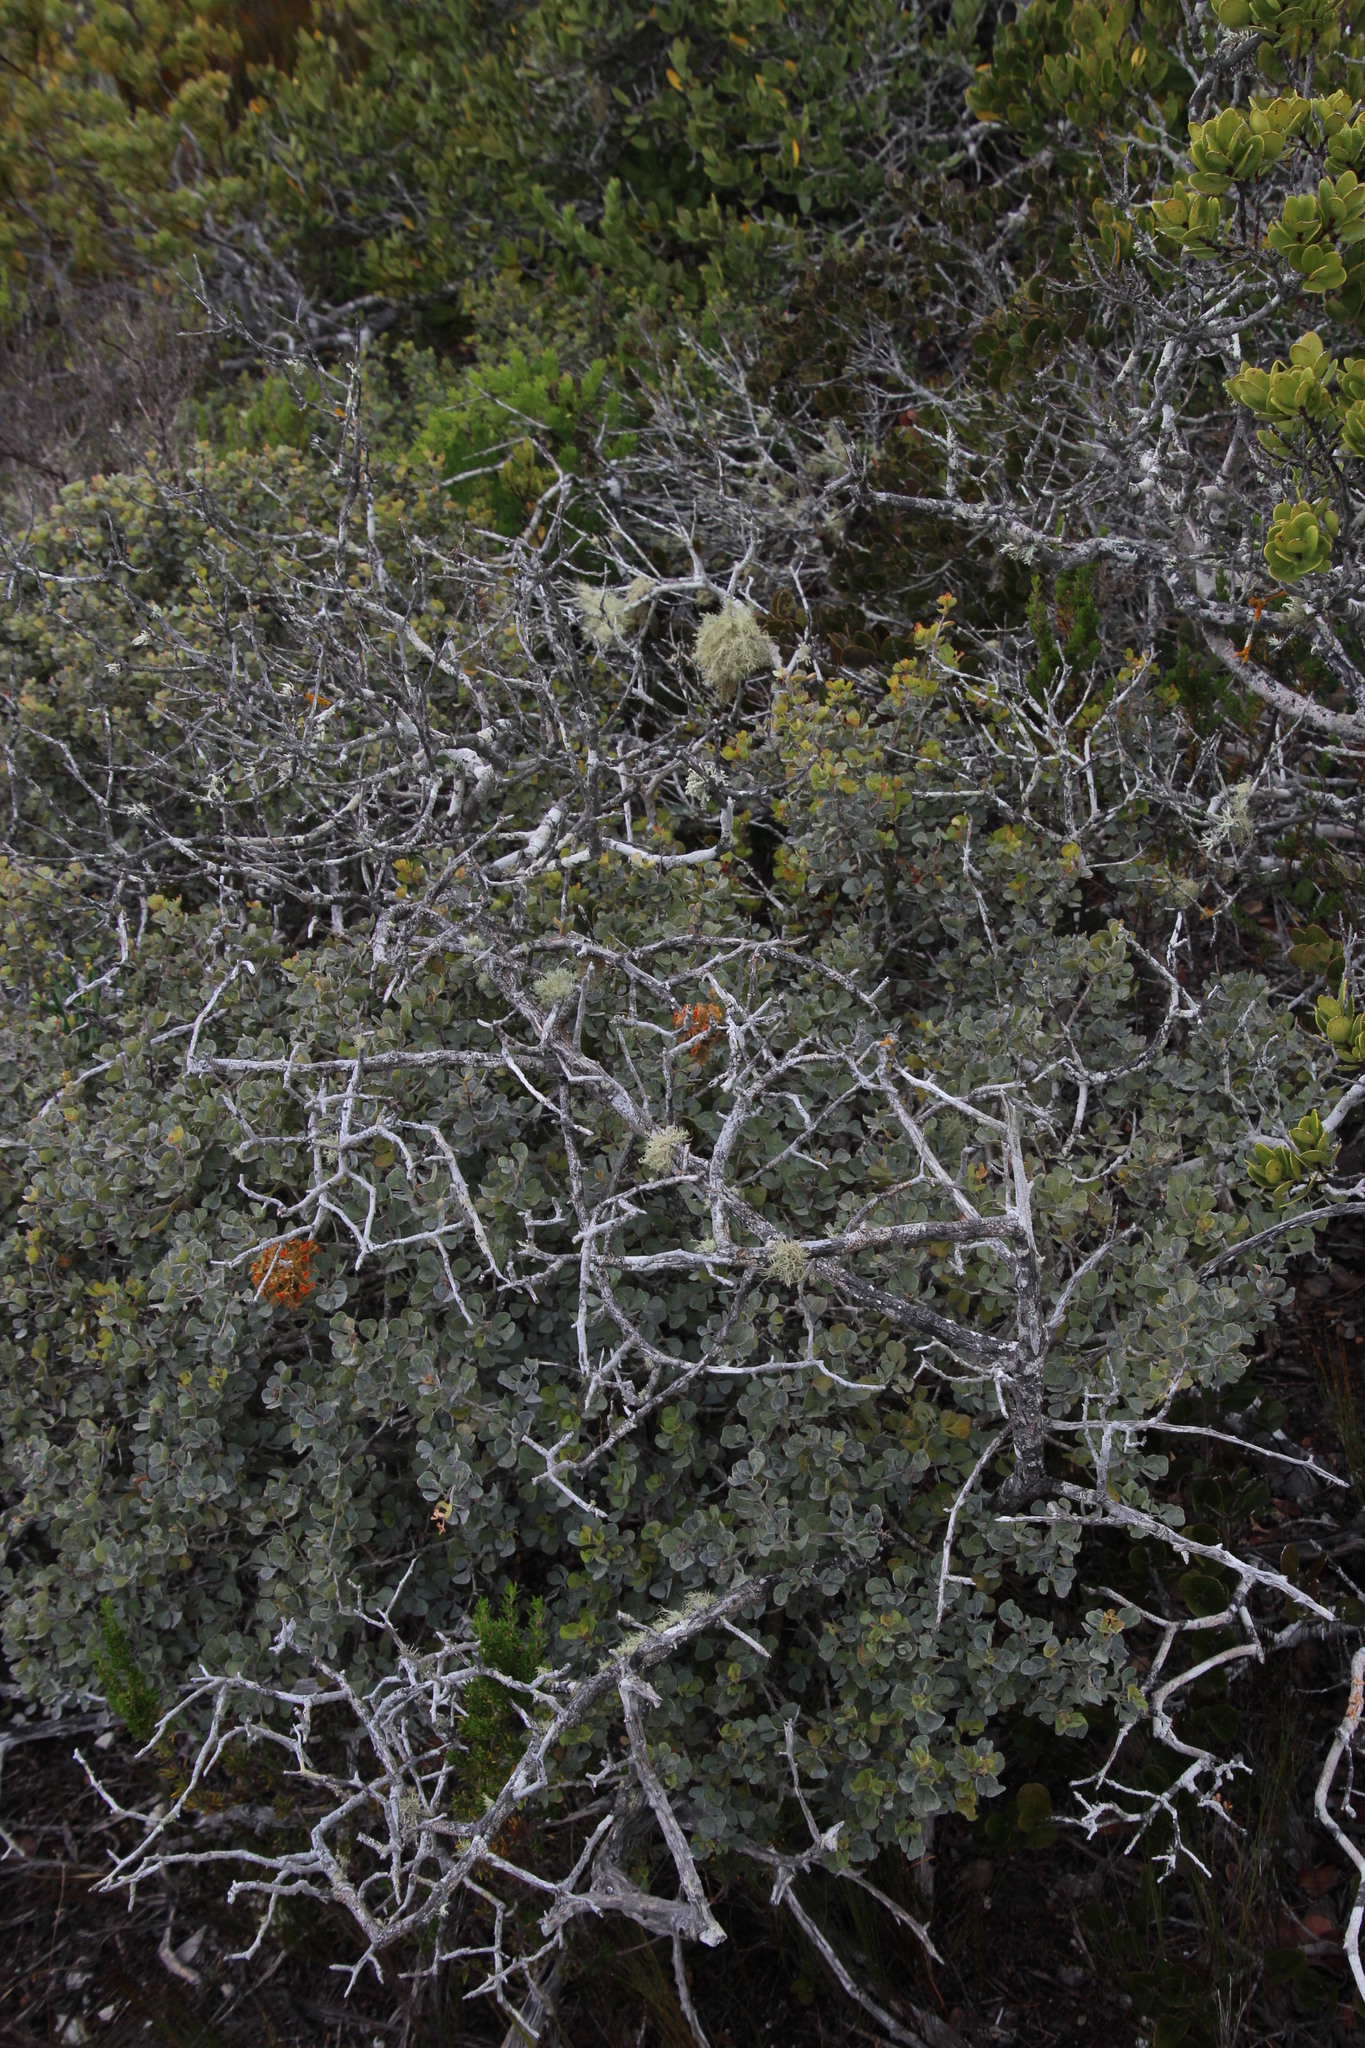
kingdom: Fungi
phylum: Ascomycota
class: Lecanoromycetes
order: Teloschistales
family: Teloschistaceae
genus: Teloschistes
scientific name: Teloschistes puber
